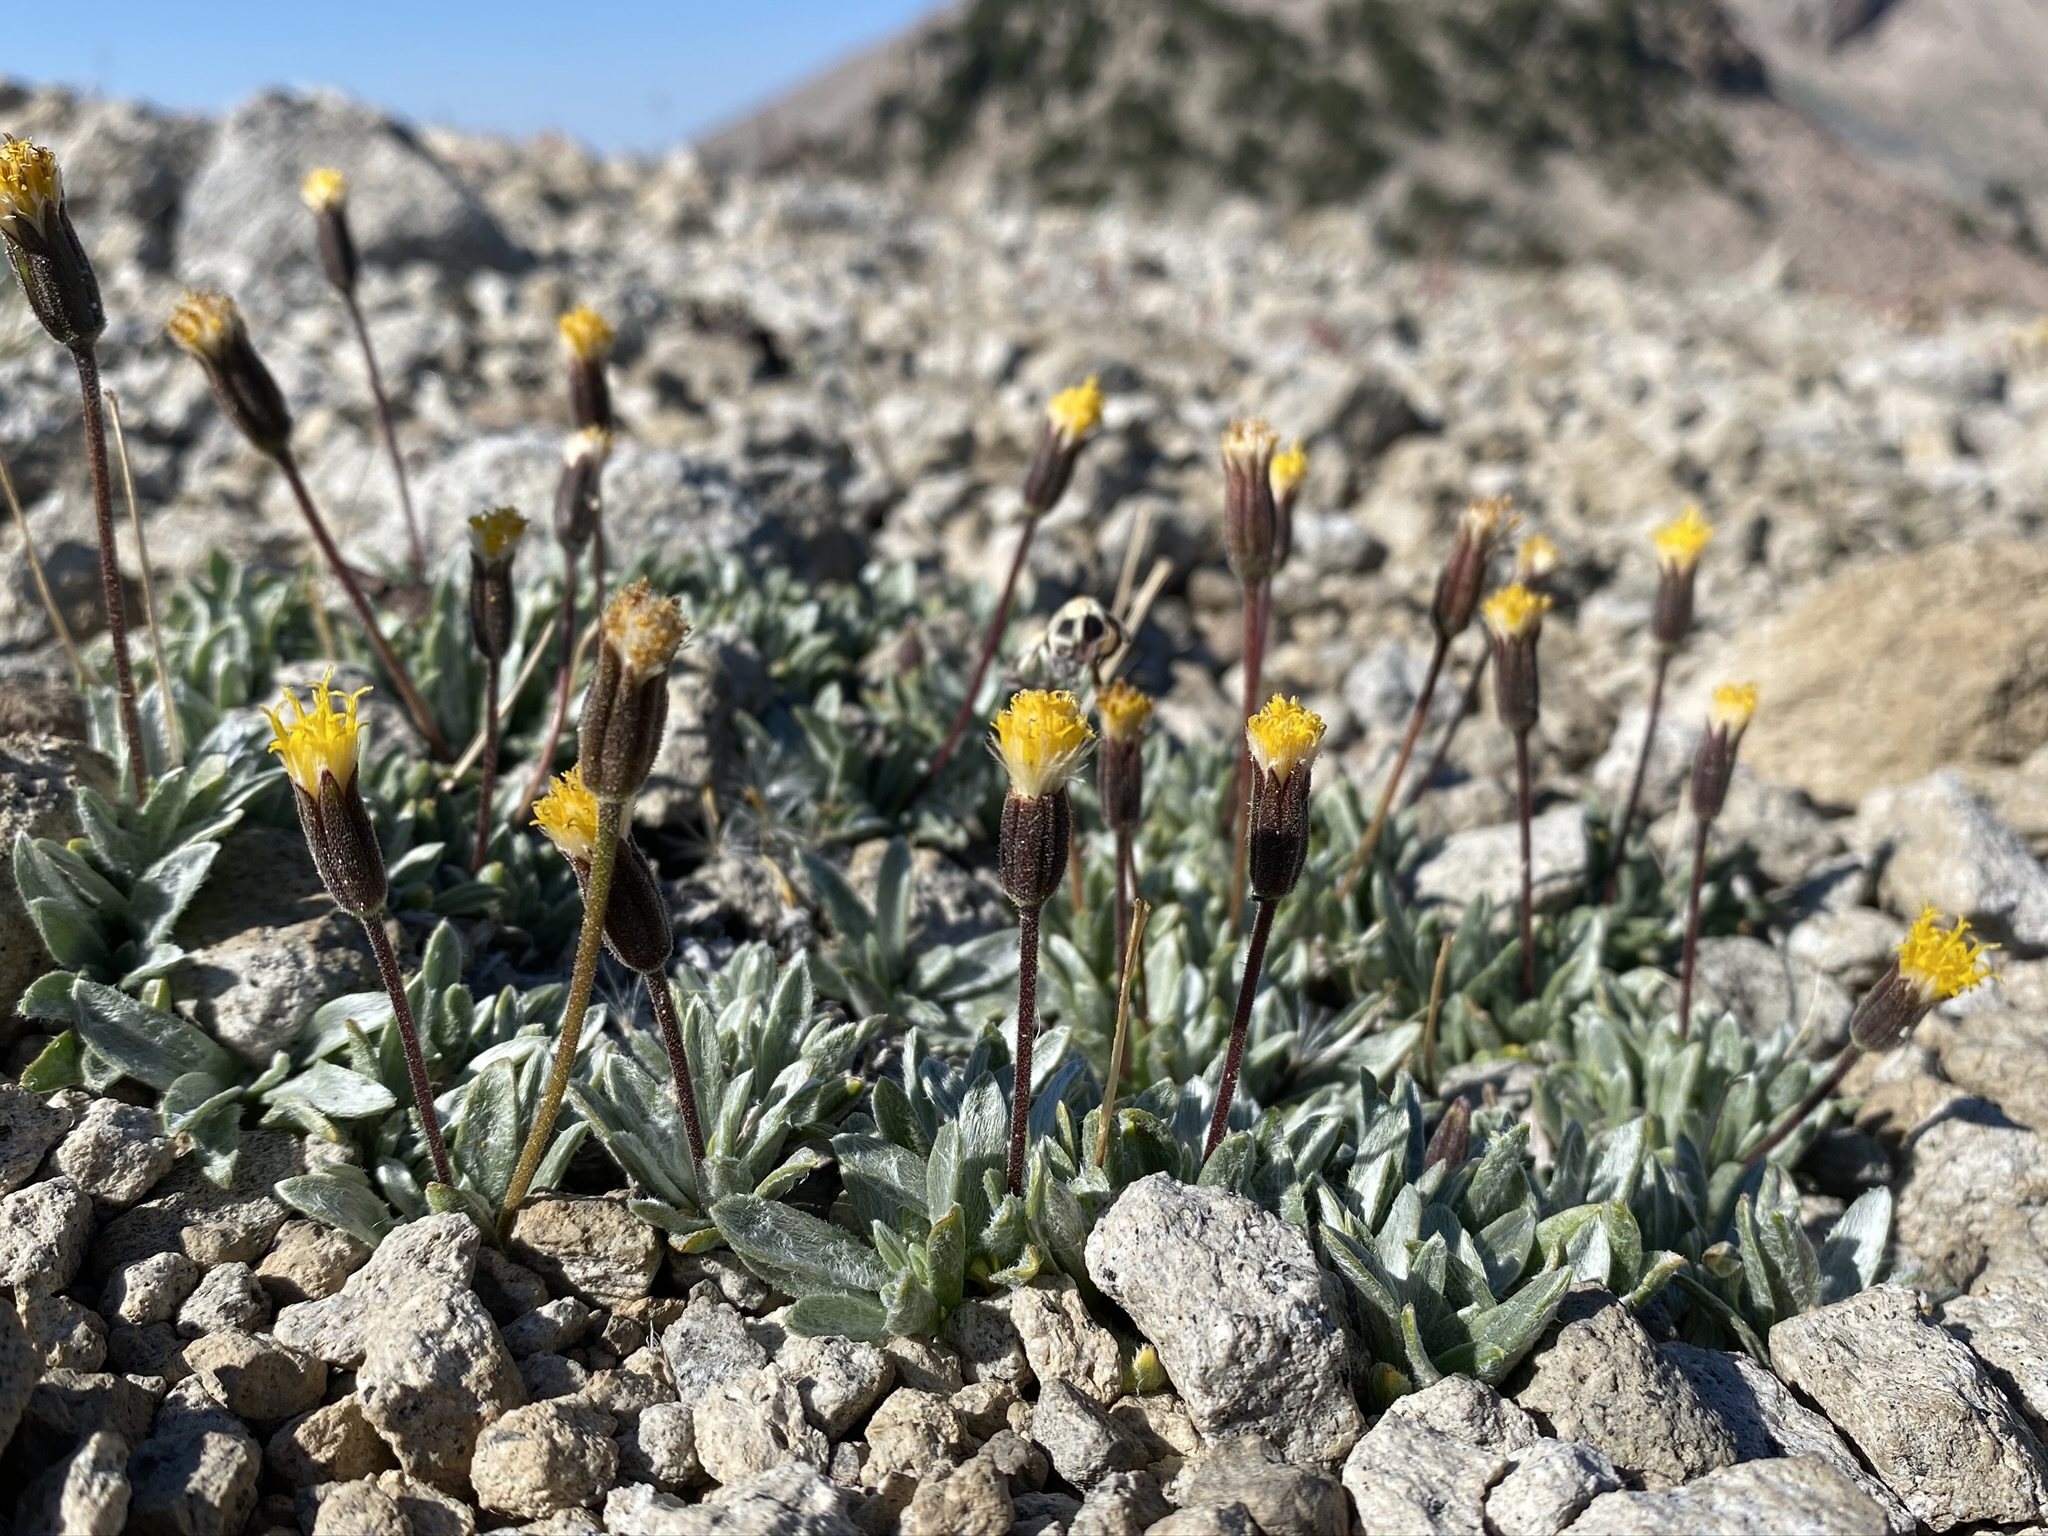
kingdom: Plantae
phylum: Tracheophyta
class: Magnoliopsida
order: Asterales
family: Asteraceae
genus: Raillardella
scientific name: Raillardella argentea
